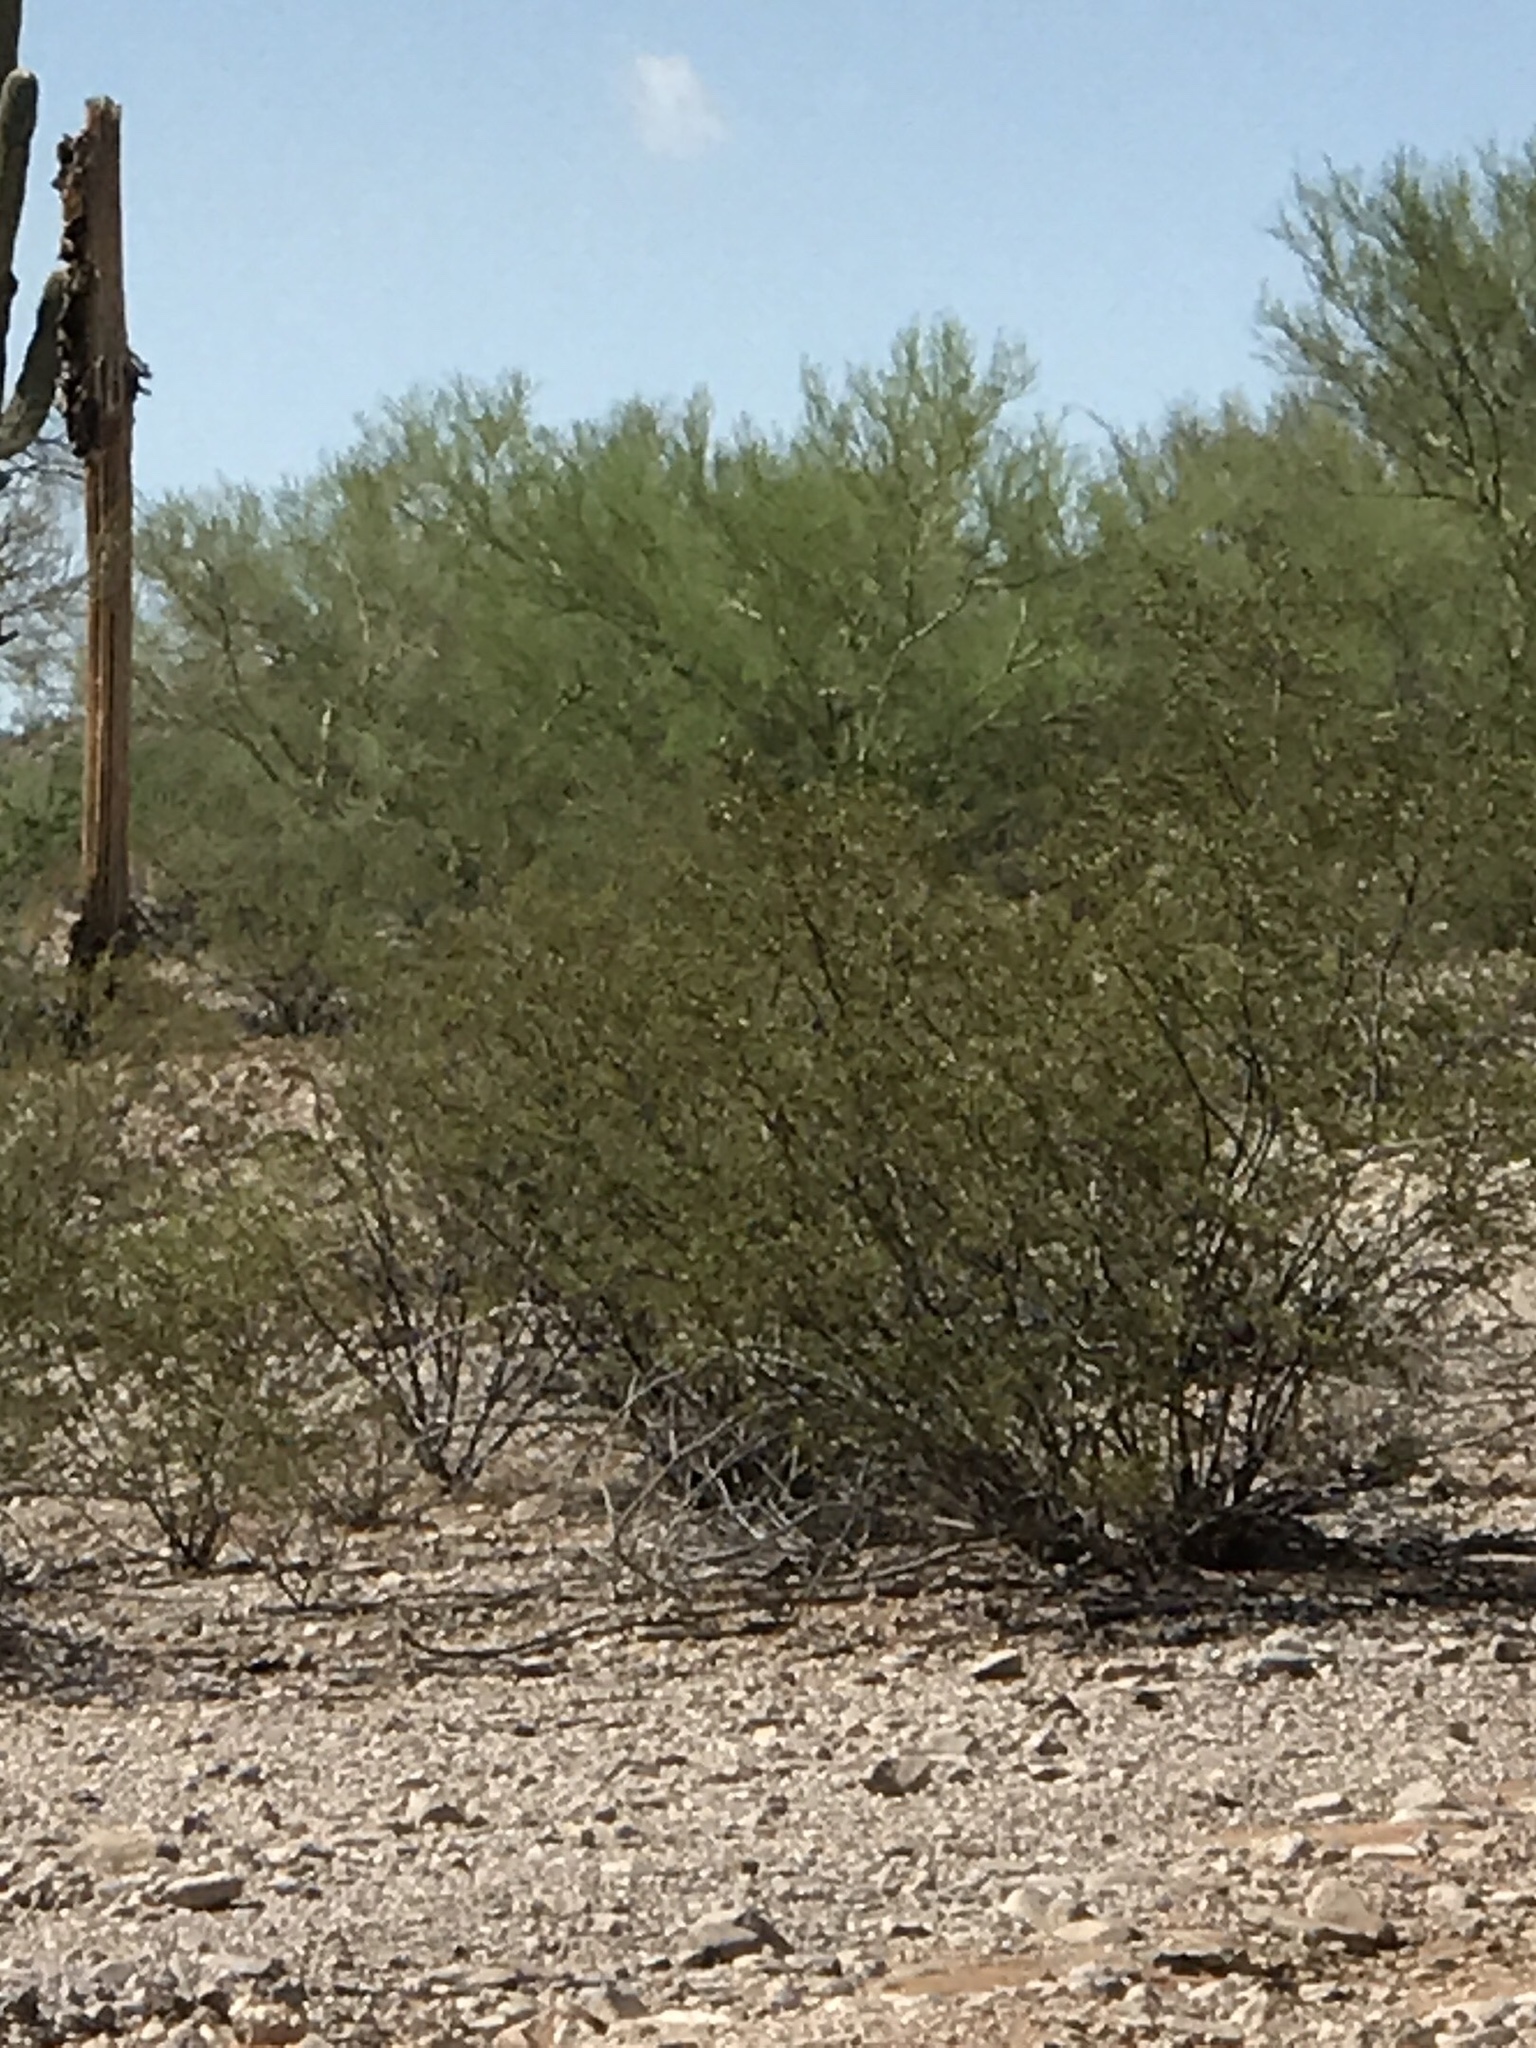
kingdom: Plantae
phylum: Tracheophyta
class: Magnoliopsida
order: Zygophyllales
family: Zygophyllaceae
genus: Larrea
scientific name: Larrea tridentata
